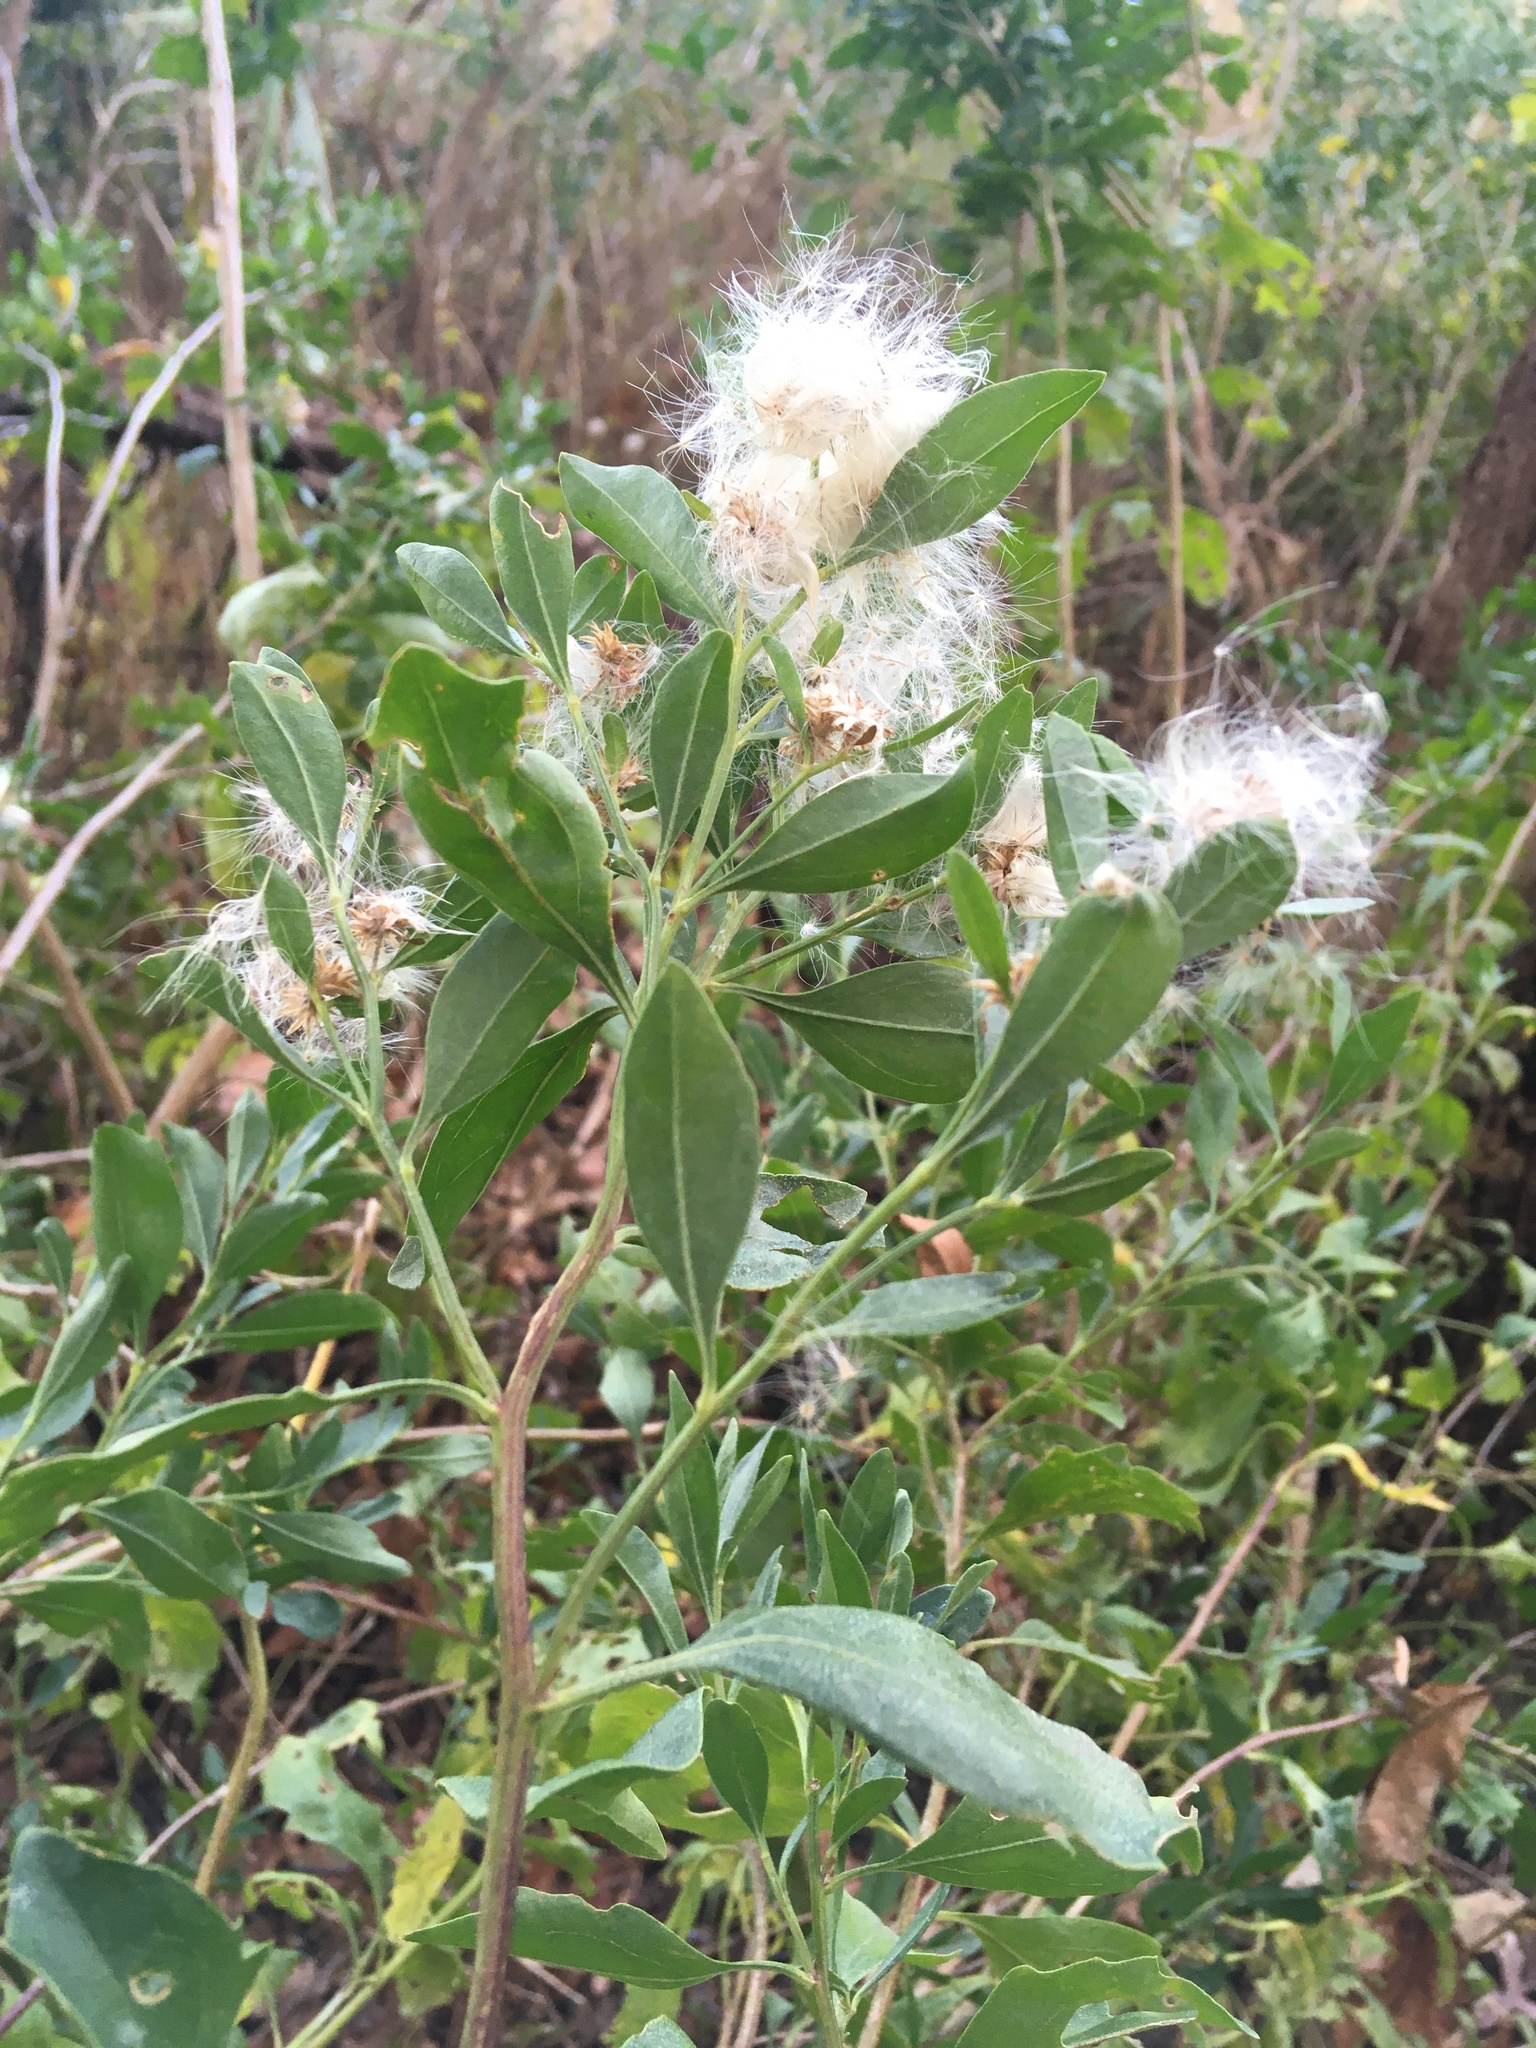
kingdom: Plantae
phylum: Tracheophyta
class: Magnoliopsida
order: Asterales
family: Asteraceae
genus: Baccharis
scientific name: Baccharis halimifolia
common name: Eastern baccharis
